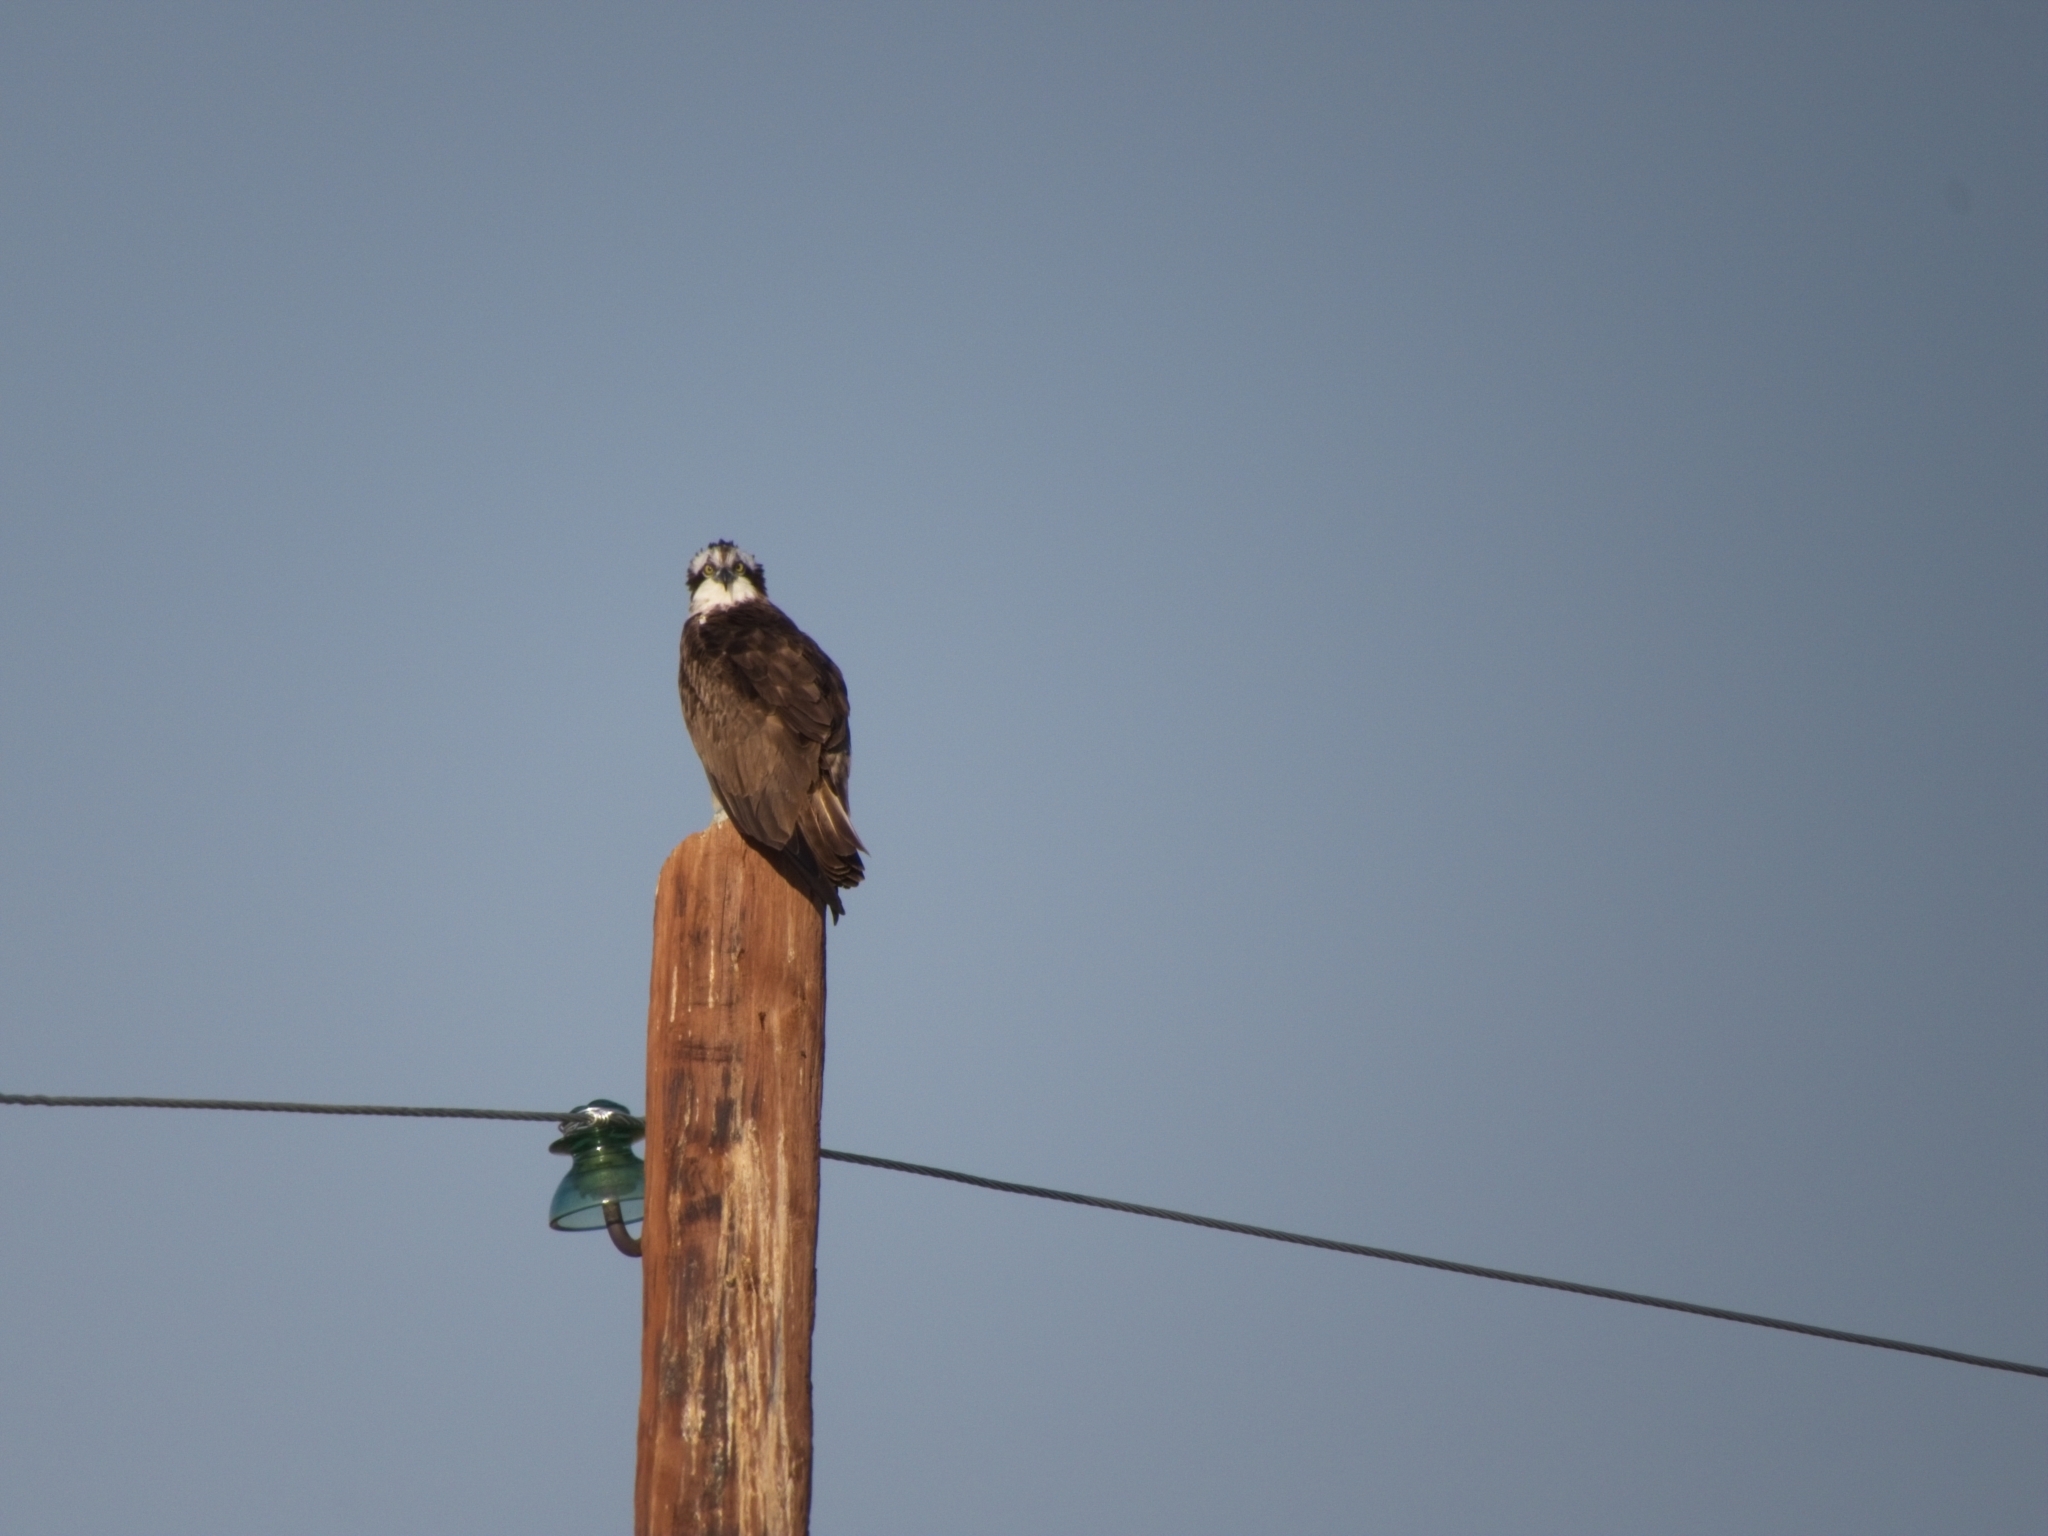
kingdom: Animalia
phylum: Chordata
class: Aves
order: Accipitriformes
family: Pandionidae
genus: Pandion
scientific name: Pandion haliaetus
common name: Osprey
